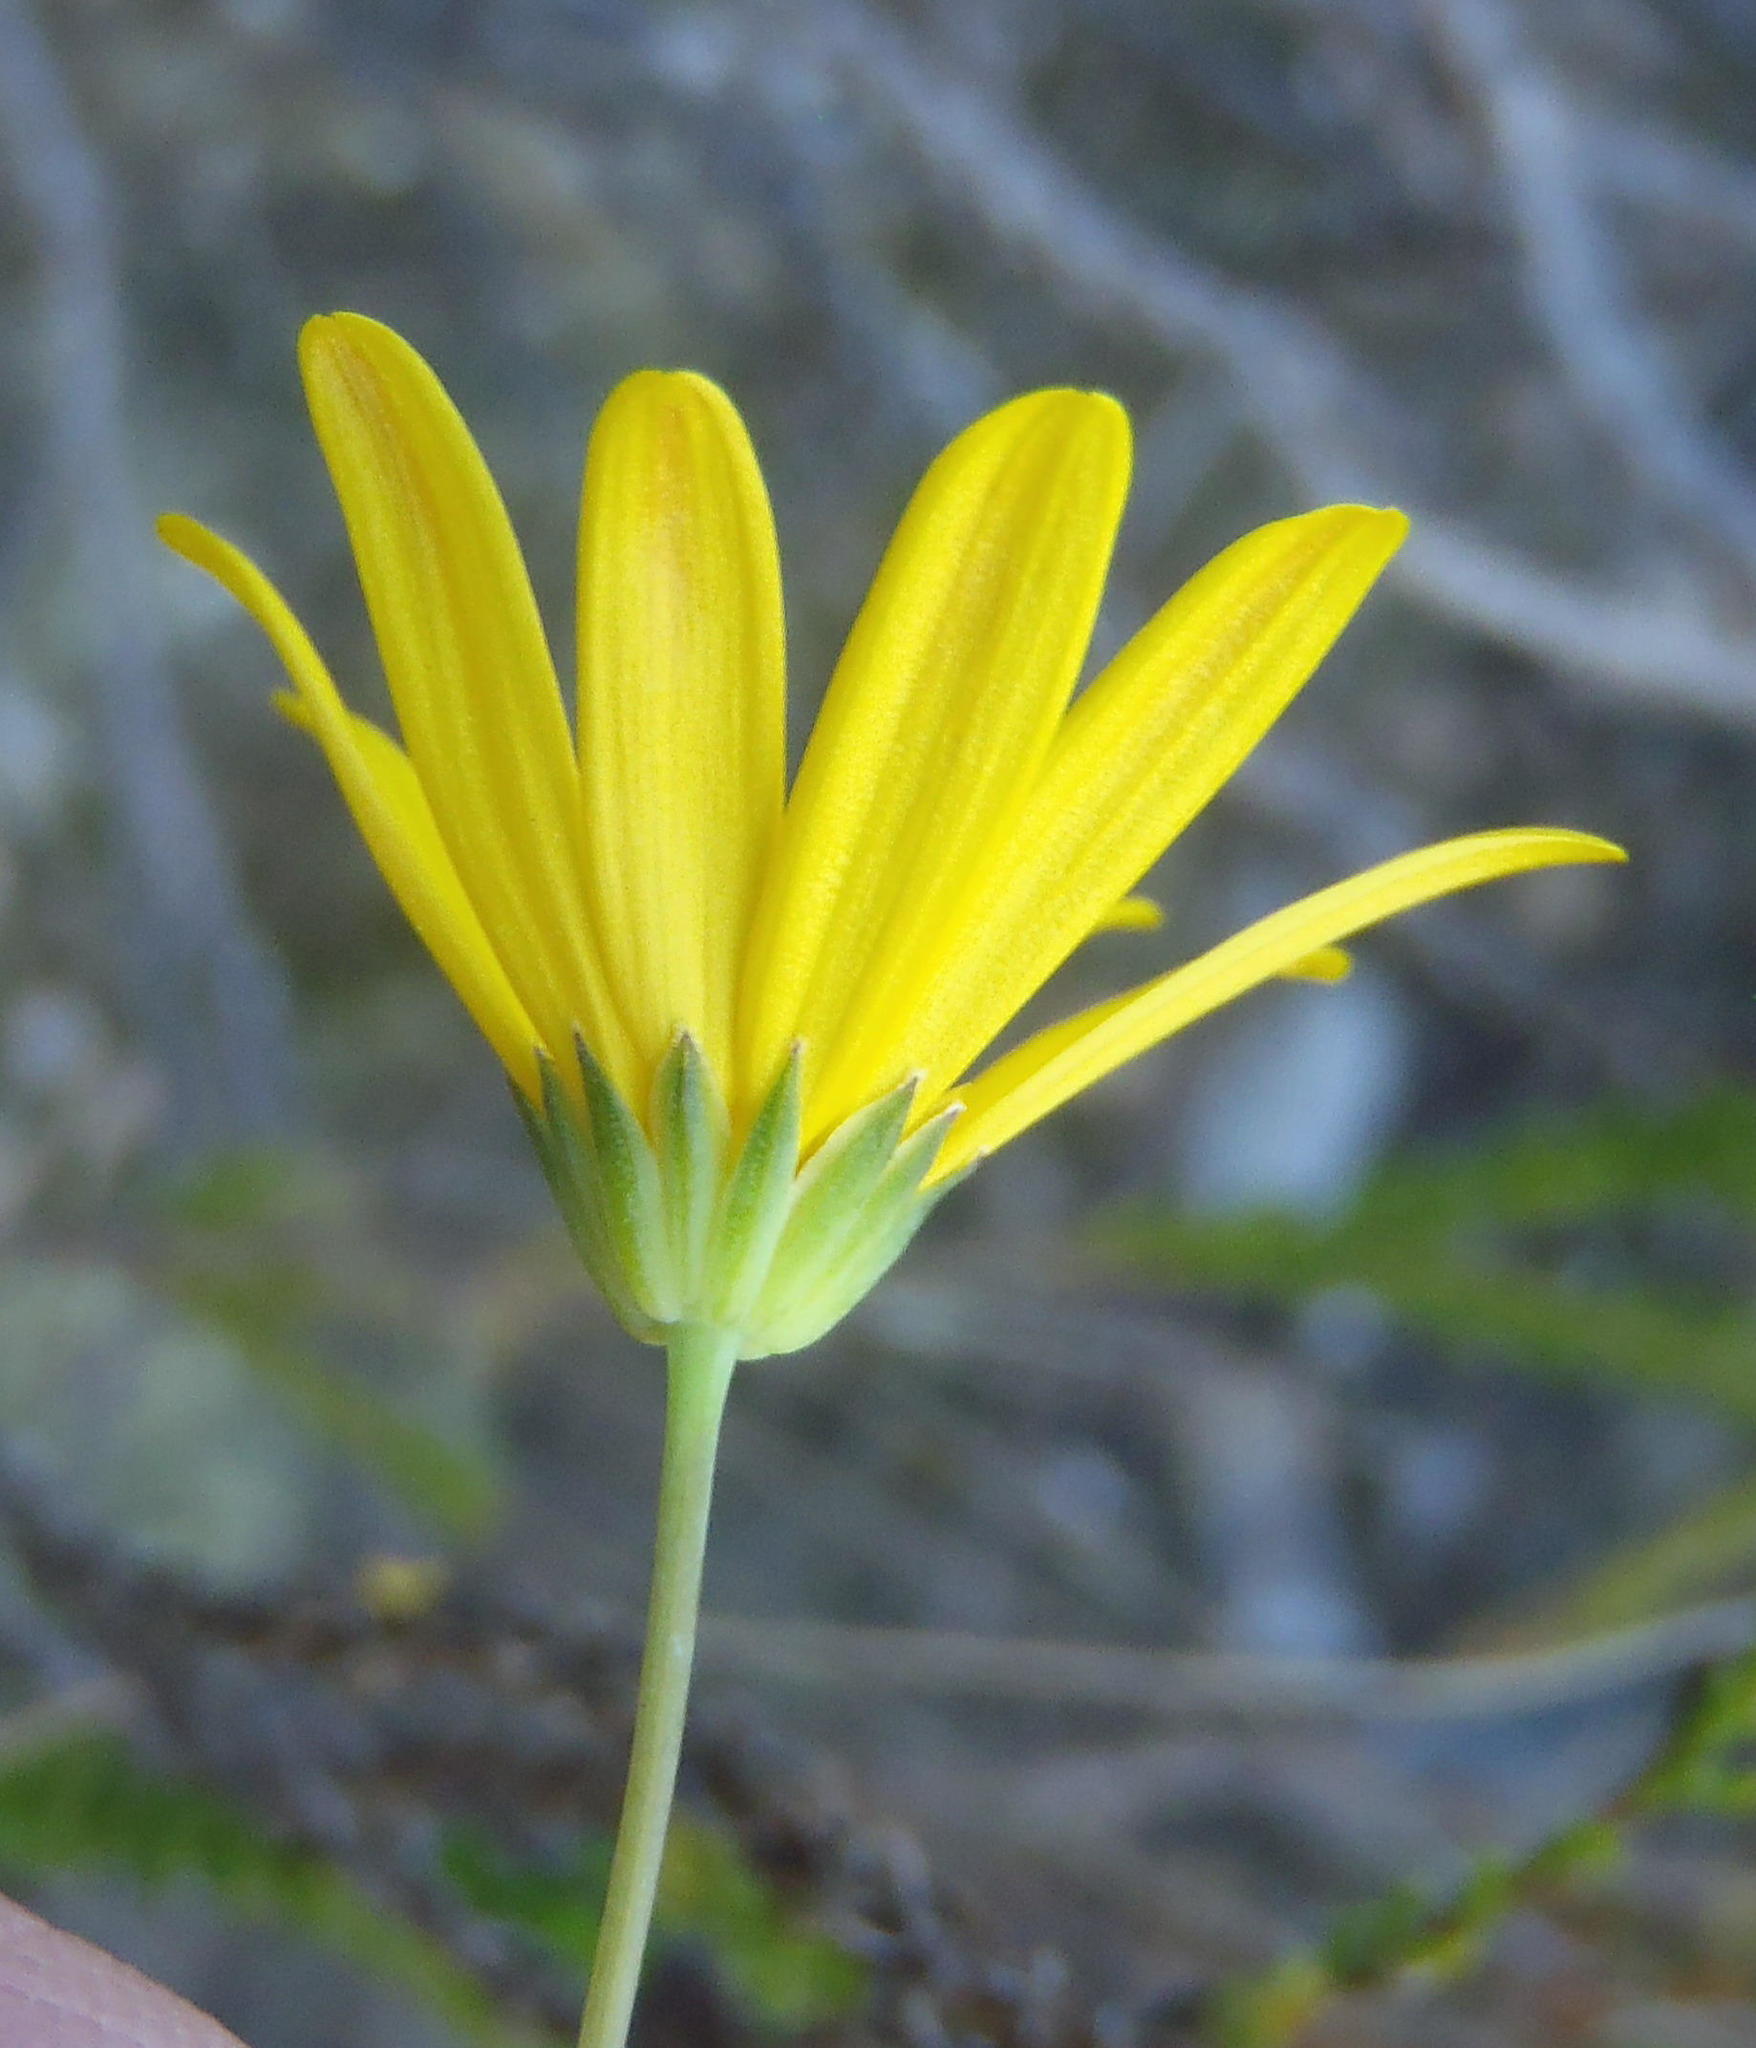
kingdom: Plantae
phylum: Tracheophyta
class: Magnoliopsida
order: Asterales
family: Asteraceae
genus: Euryops
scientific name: Euryops munitus
